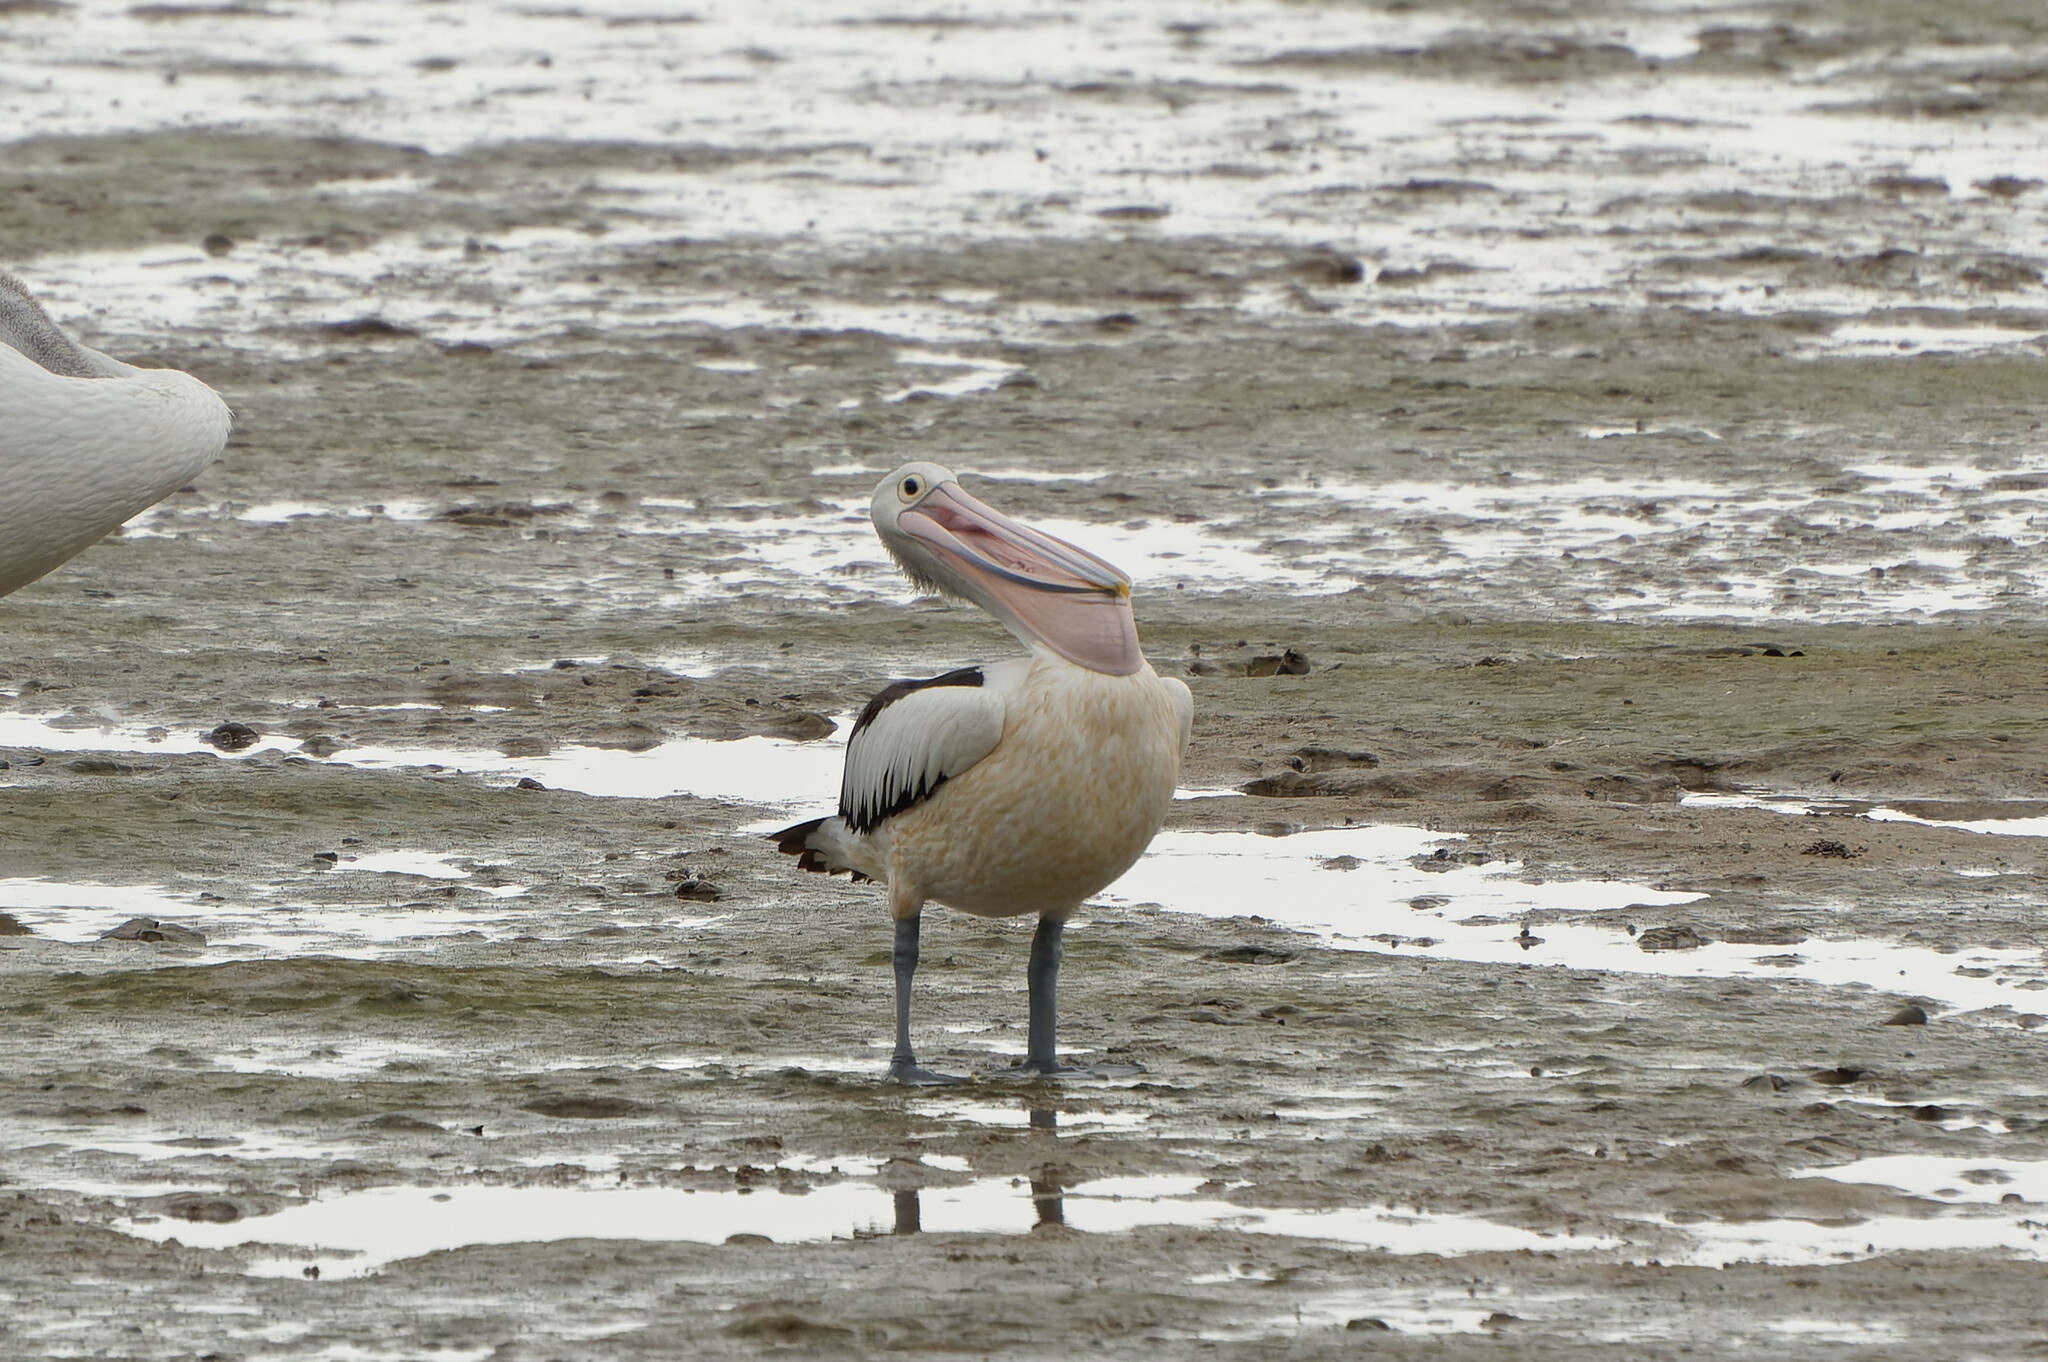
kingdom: Animalia
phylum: Chordata
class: Aves
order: Pelecaniformes
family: Pelecanidae
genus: Pelecanus
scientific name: Pelecanus conspicillatus
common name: Australian pelican
